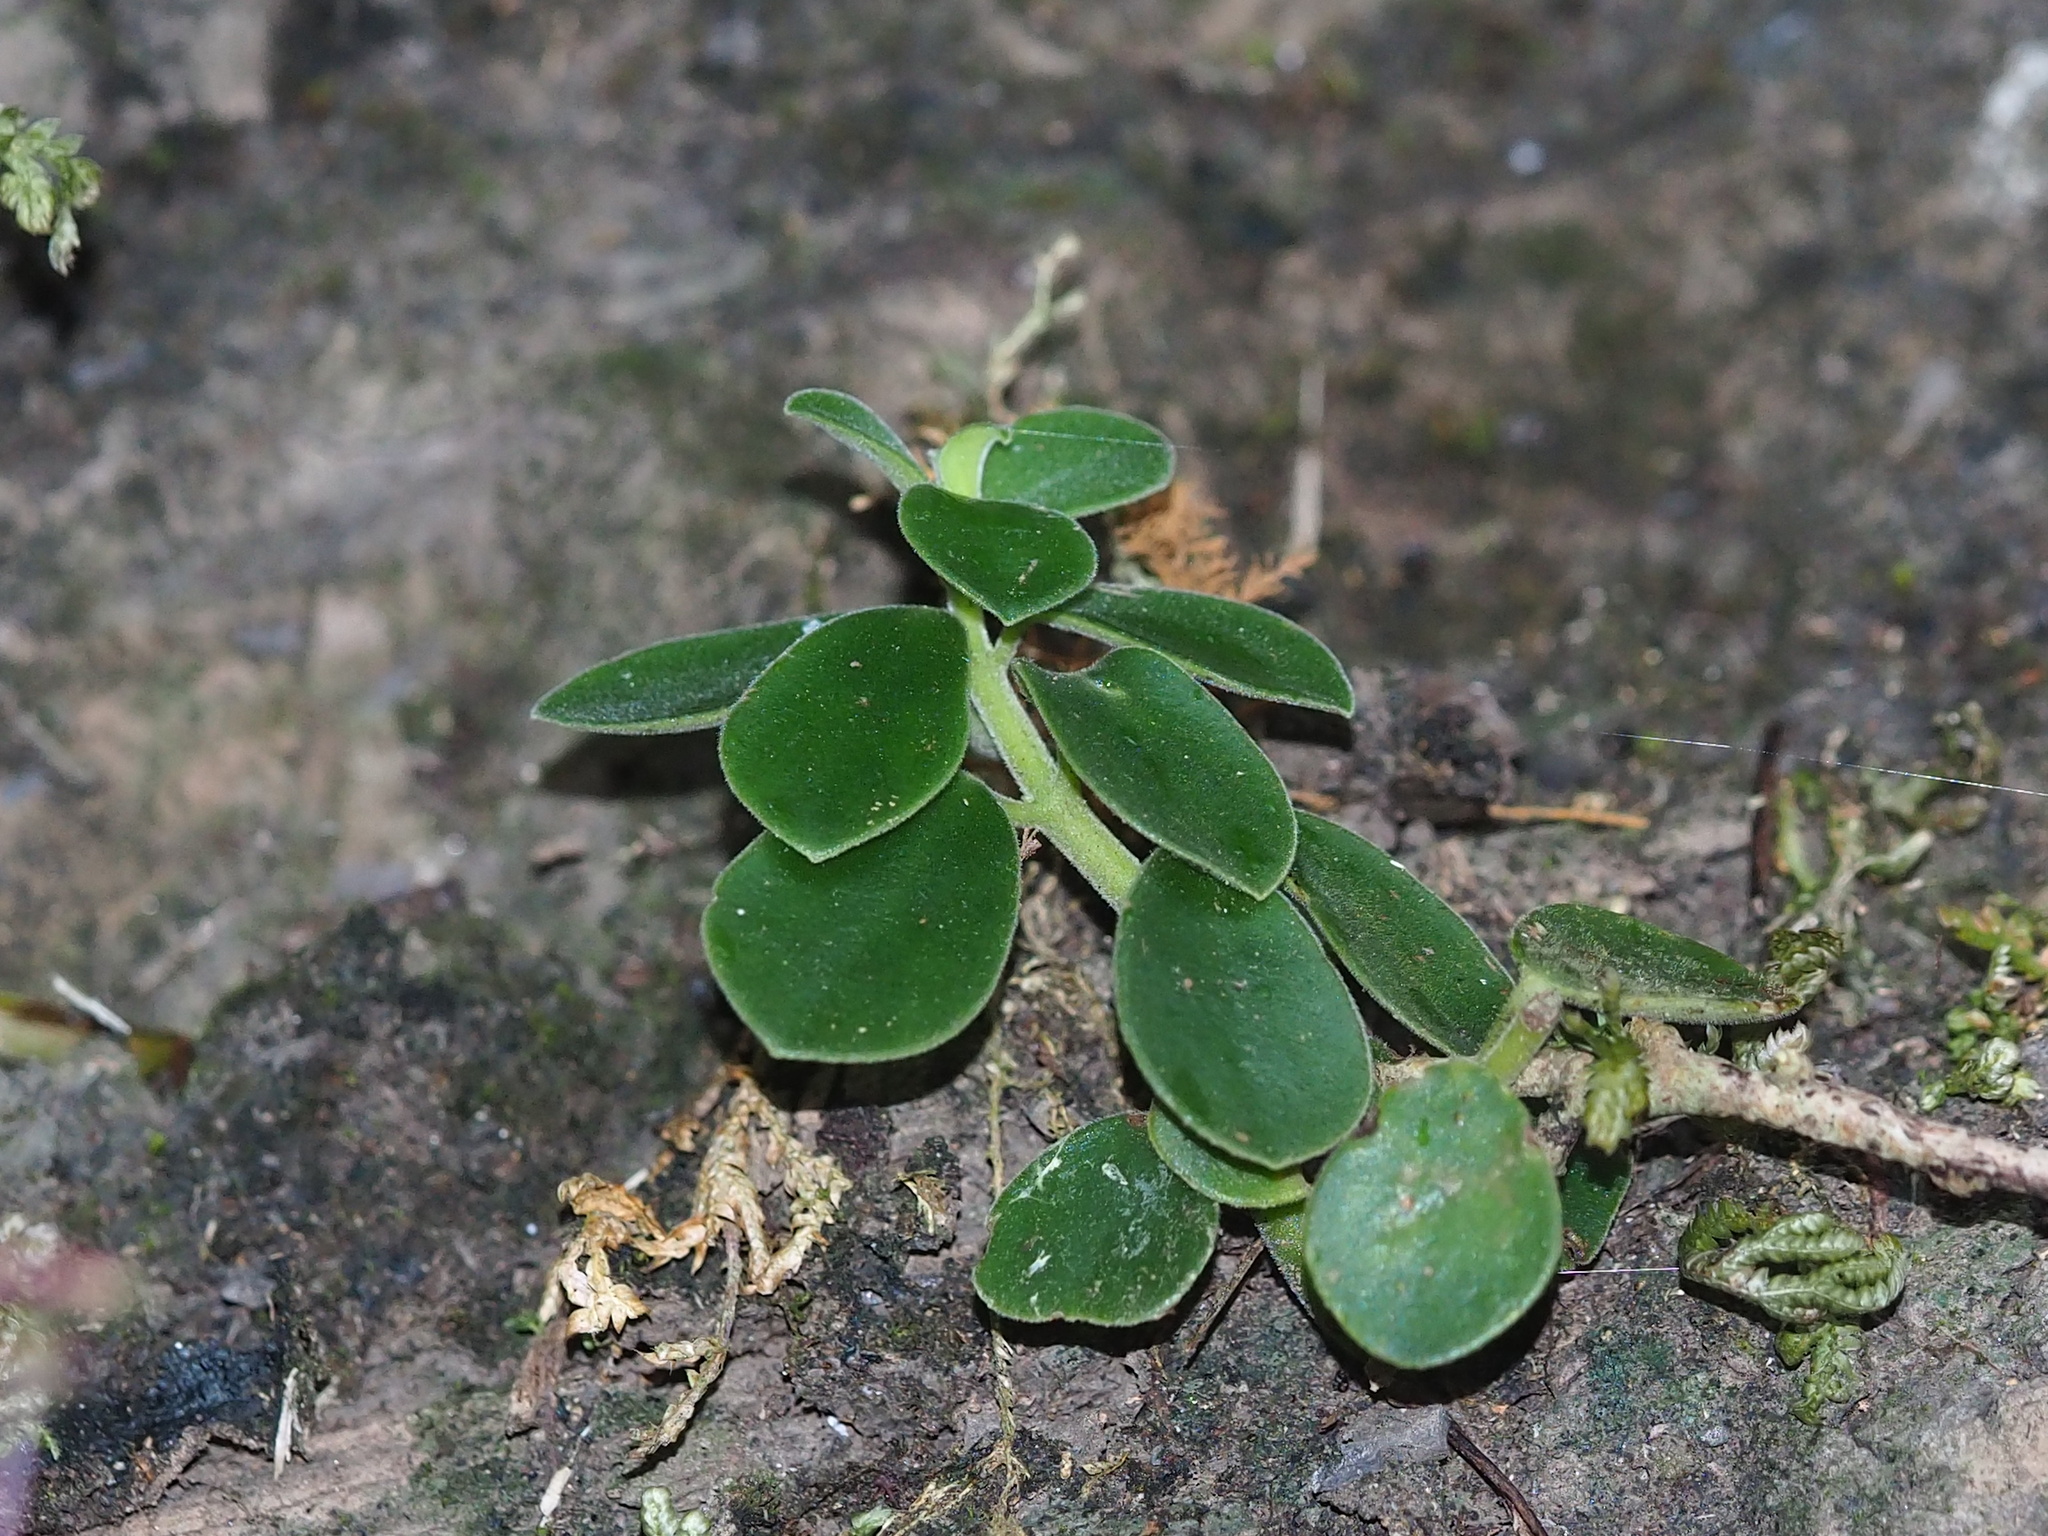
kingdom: Plantae
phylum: Tracheophyta
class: Magnoliopsida
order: Piperales
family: Piperaceae
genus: Peperomia
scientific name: Peperomia japonica
